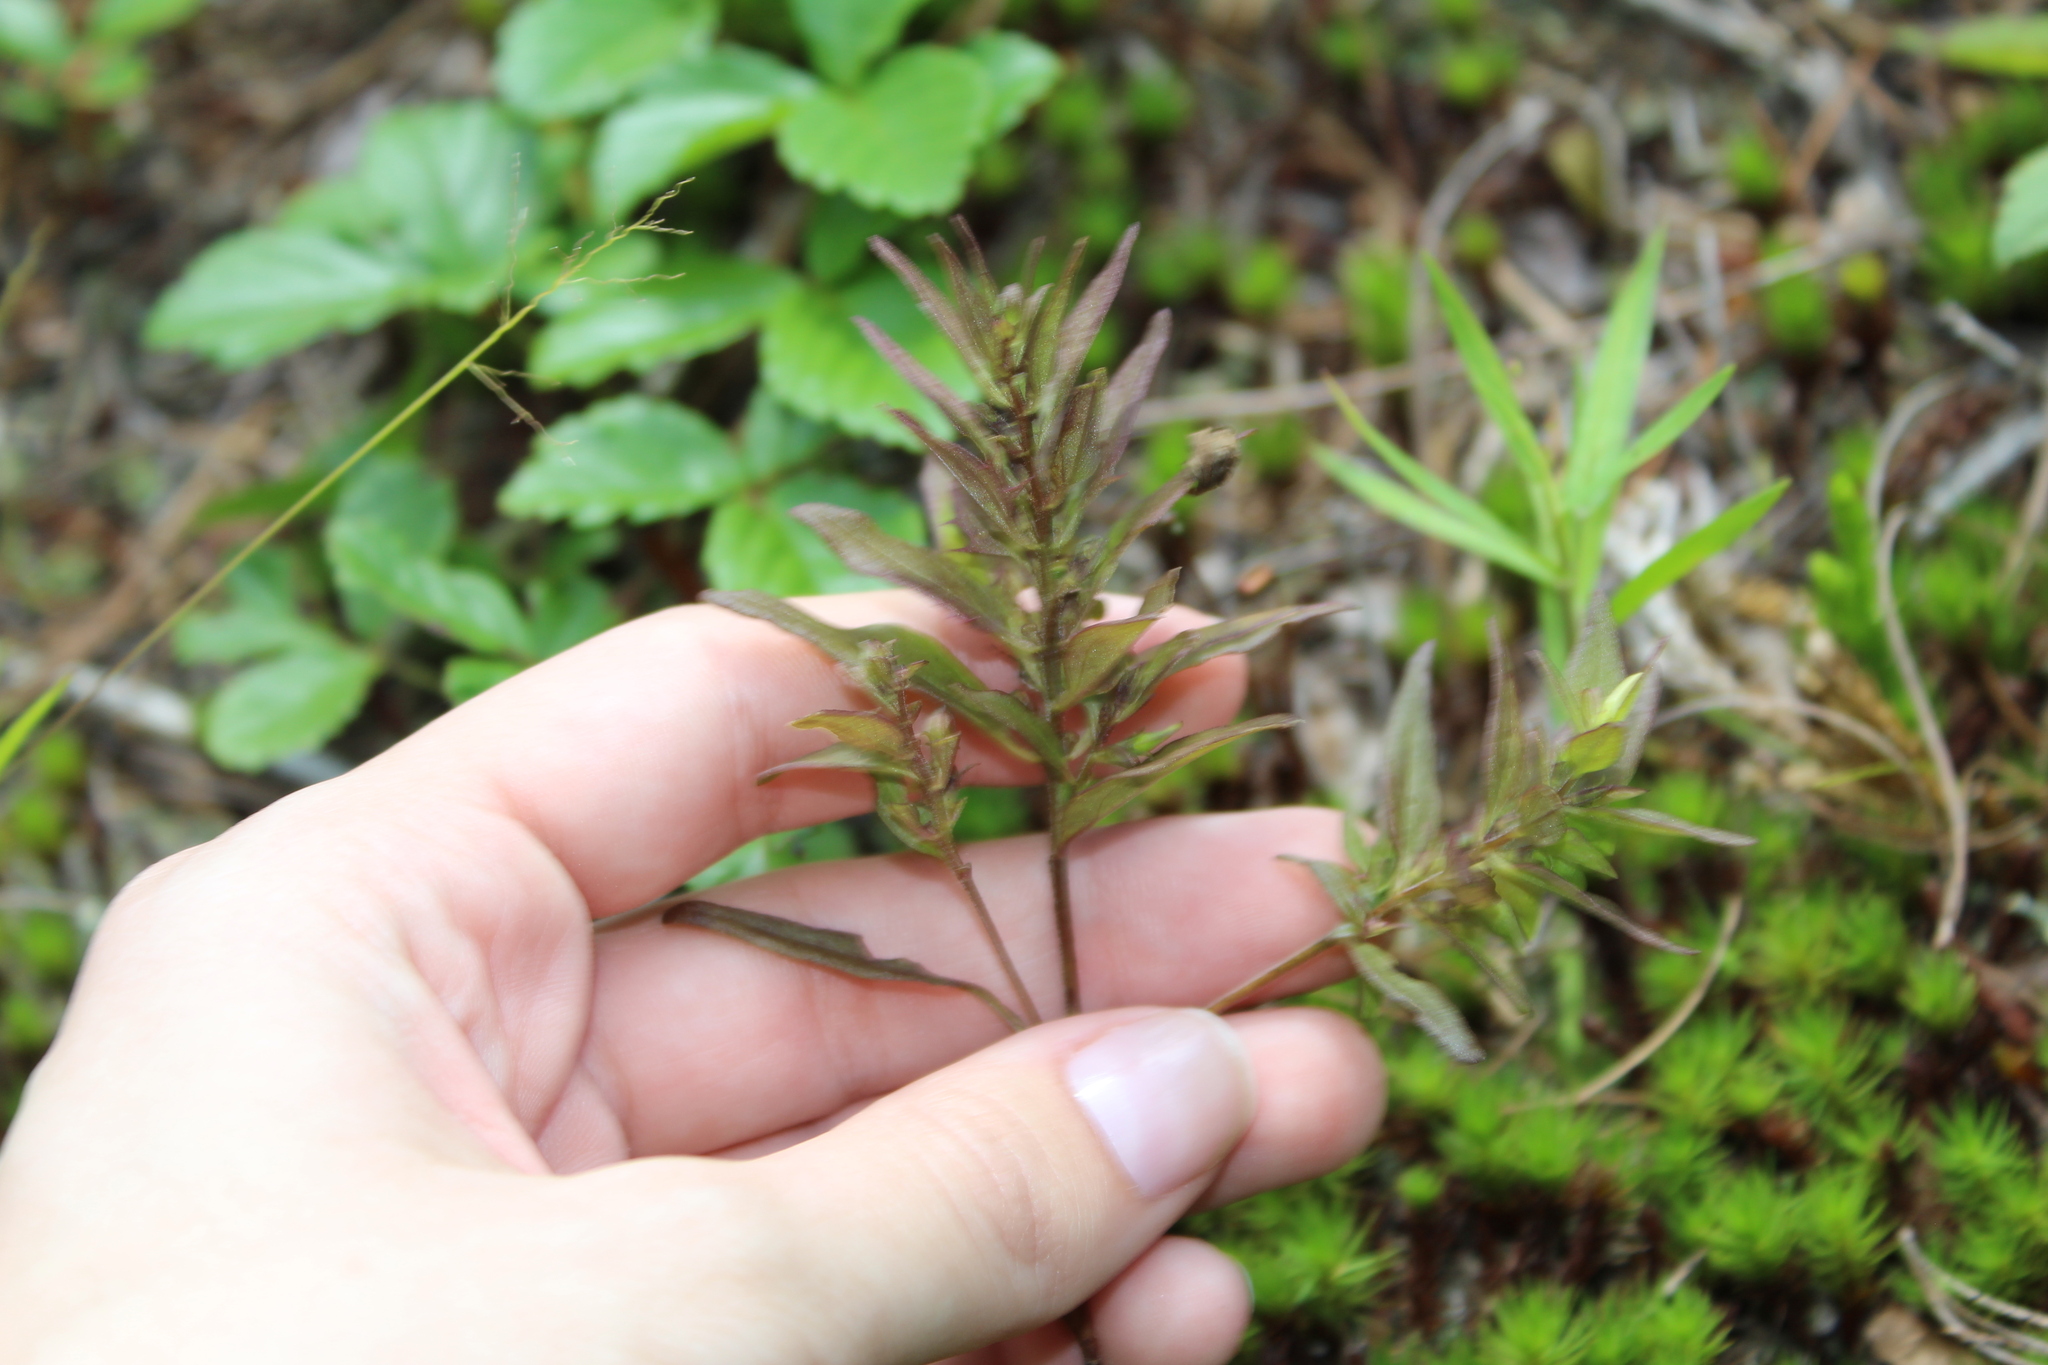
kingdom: Plantae
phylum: Tracheophyta
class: Magnoliopsida
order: Lamiales
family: Orobanchaceae
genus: Melampyrum
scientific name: Melampyrum lineare
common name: American cow-wheat
